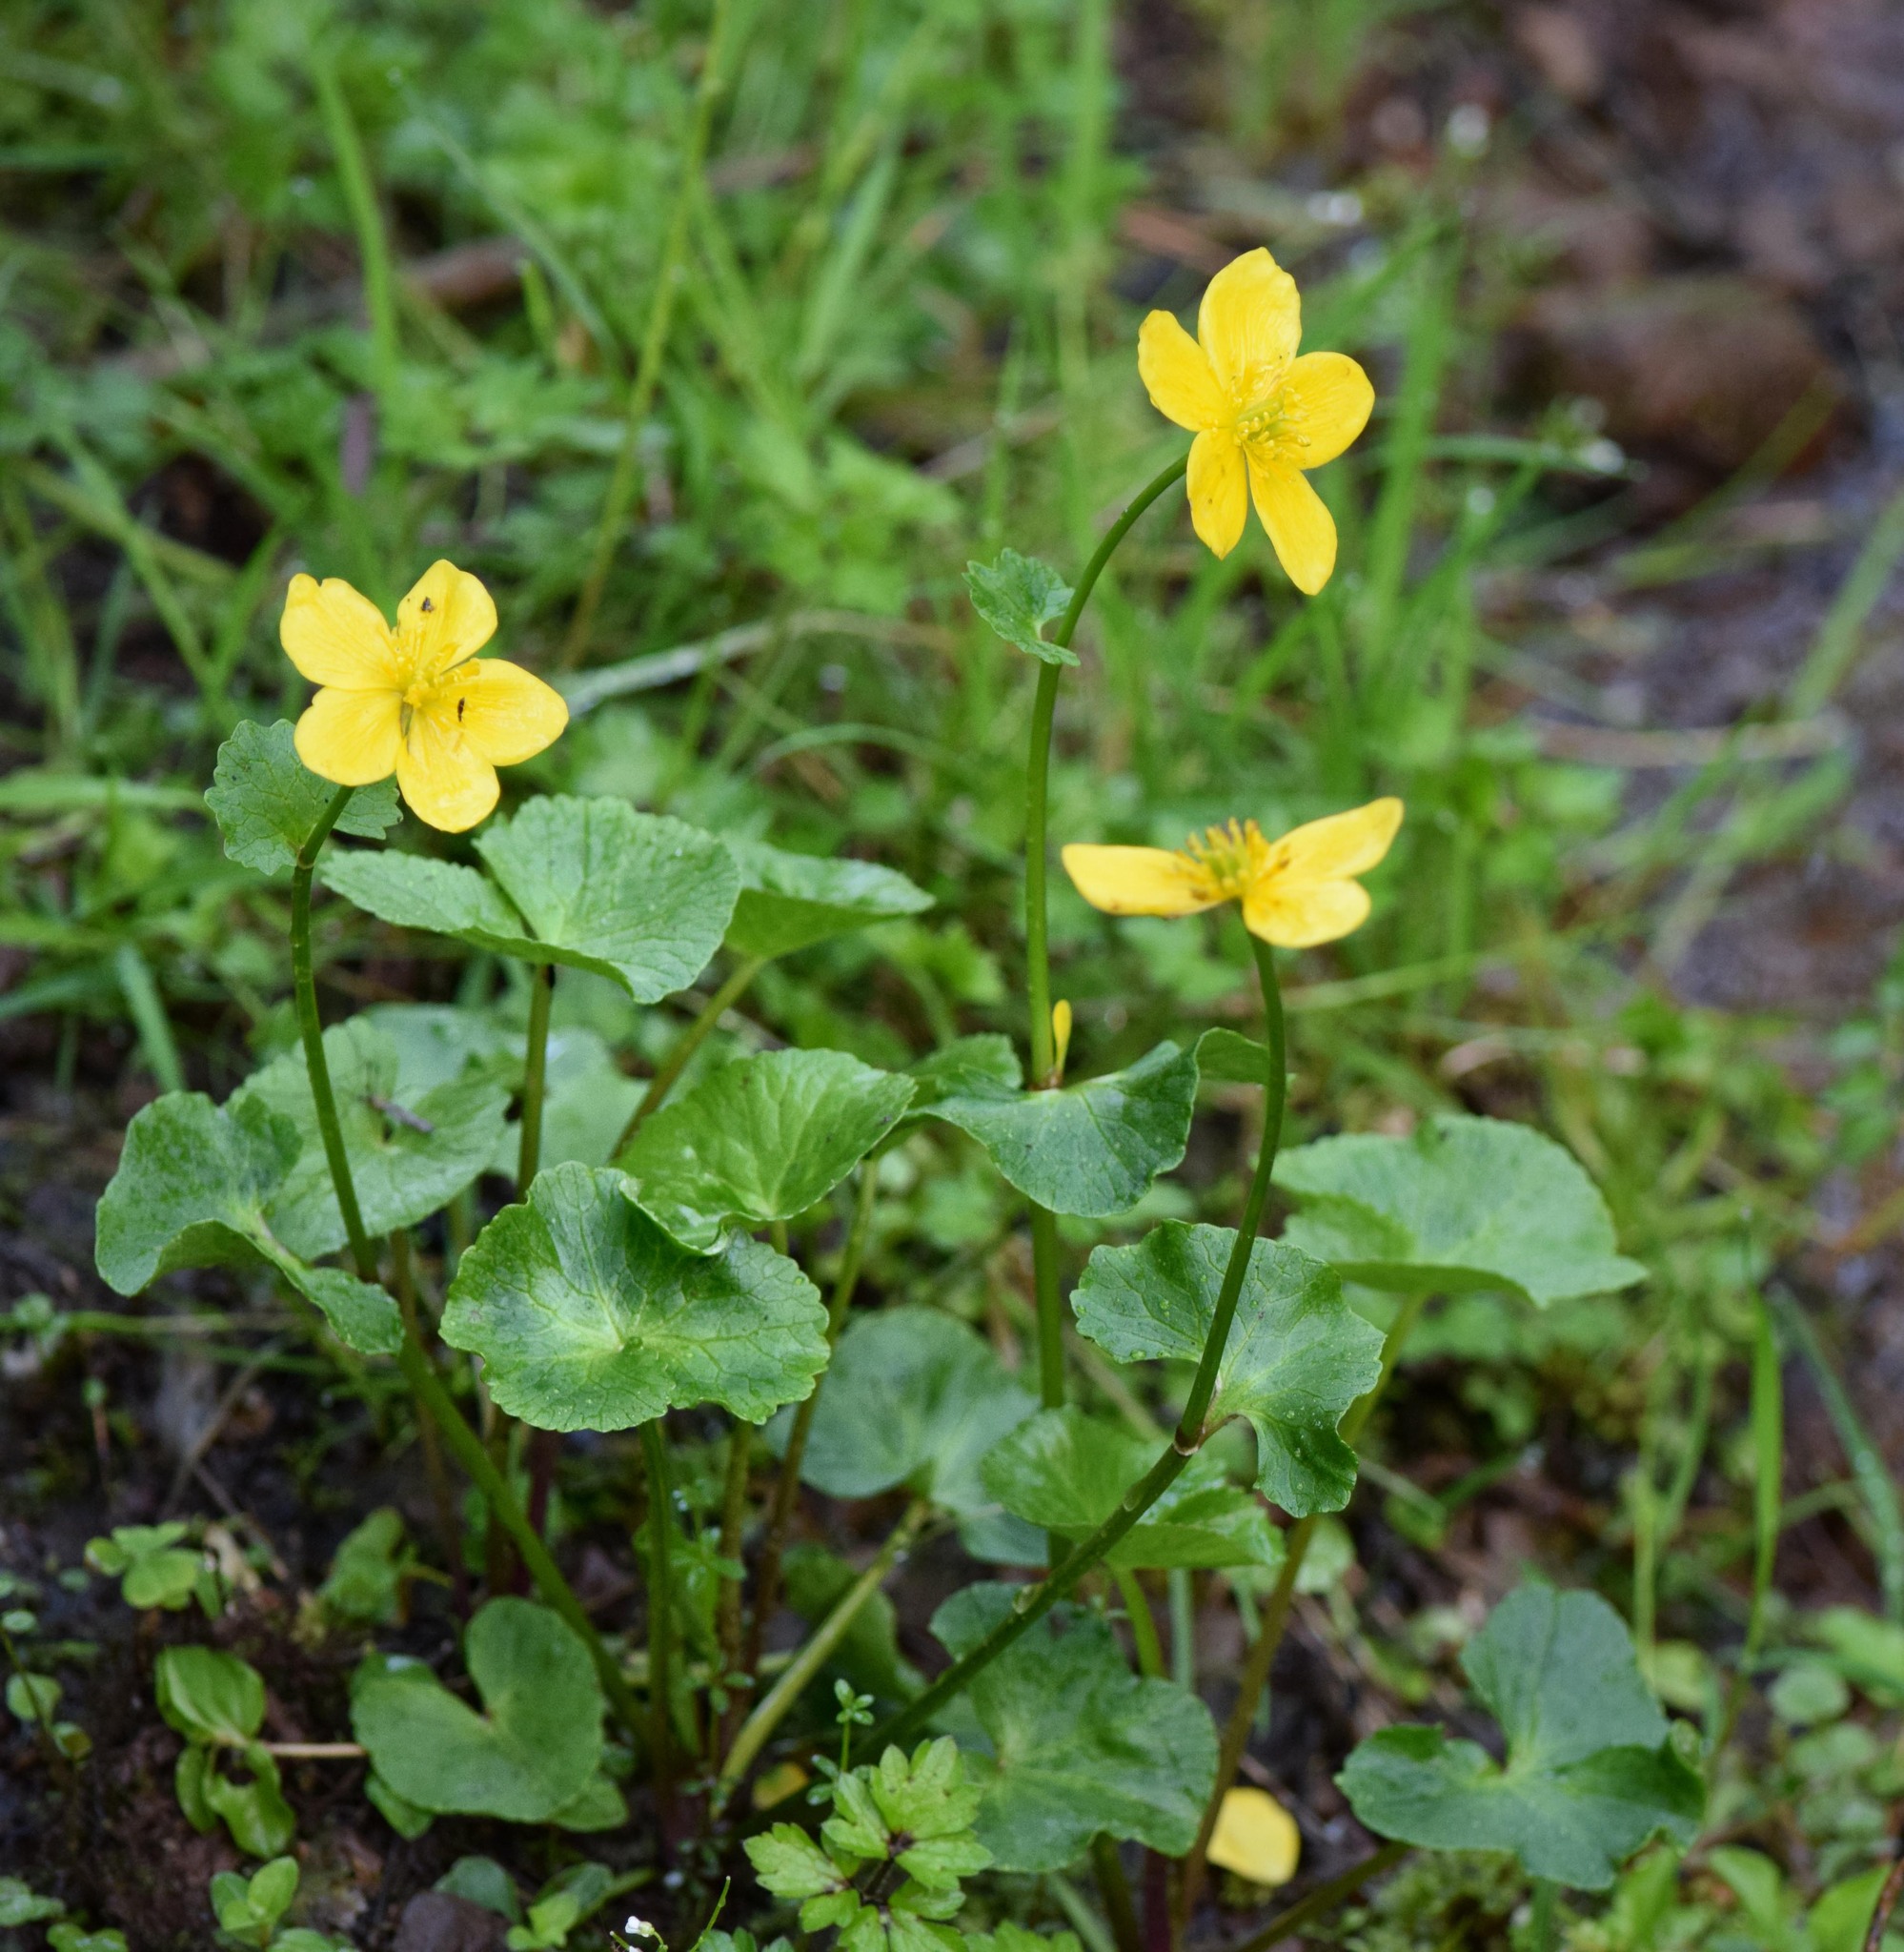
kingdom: Plantae
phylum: Tracheophyta
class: Magnoliopsida
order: Ranunculales
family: Ranunculaceae
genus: Caltha
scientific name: Caltha palustris
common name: Marsh marigold
